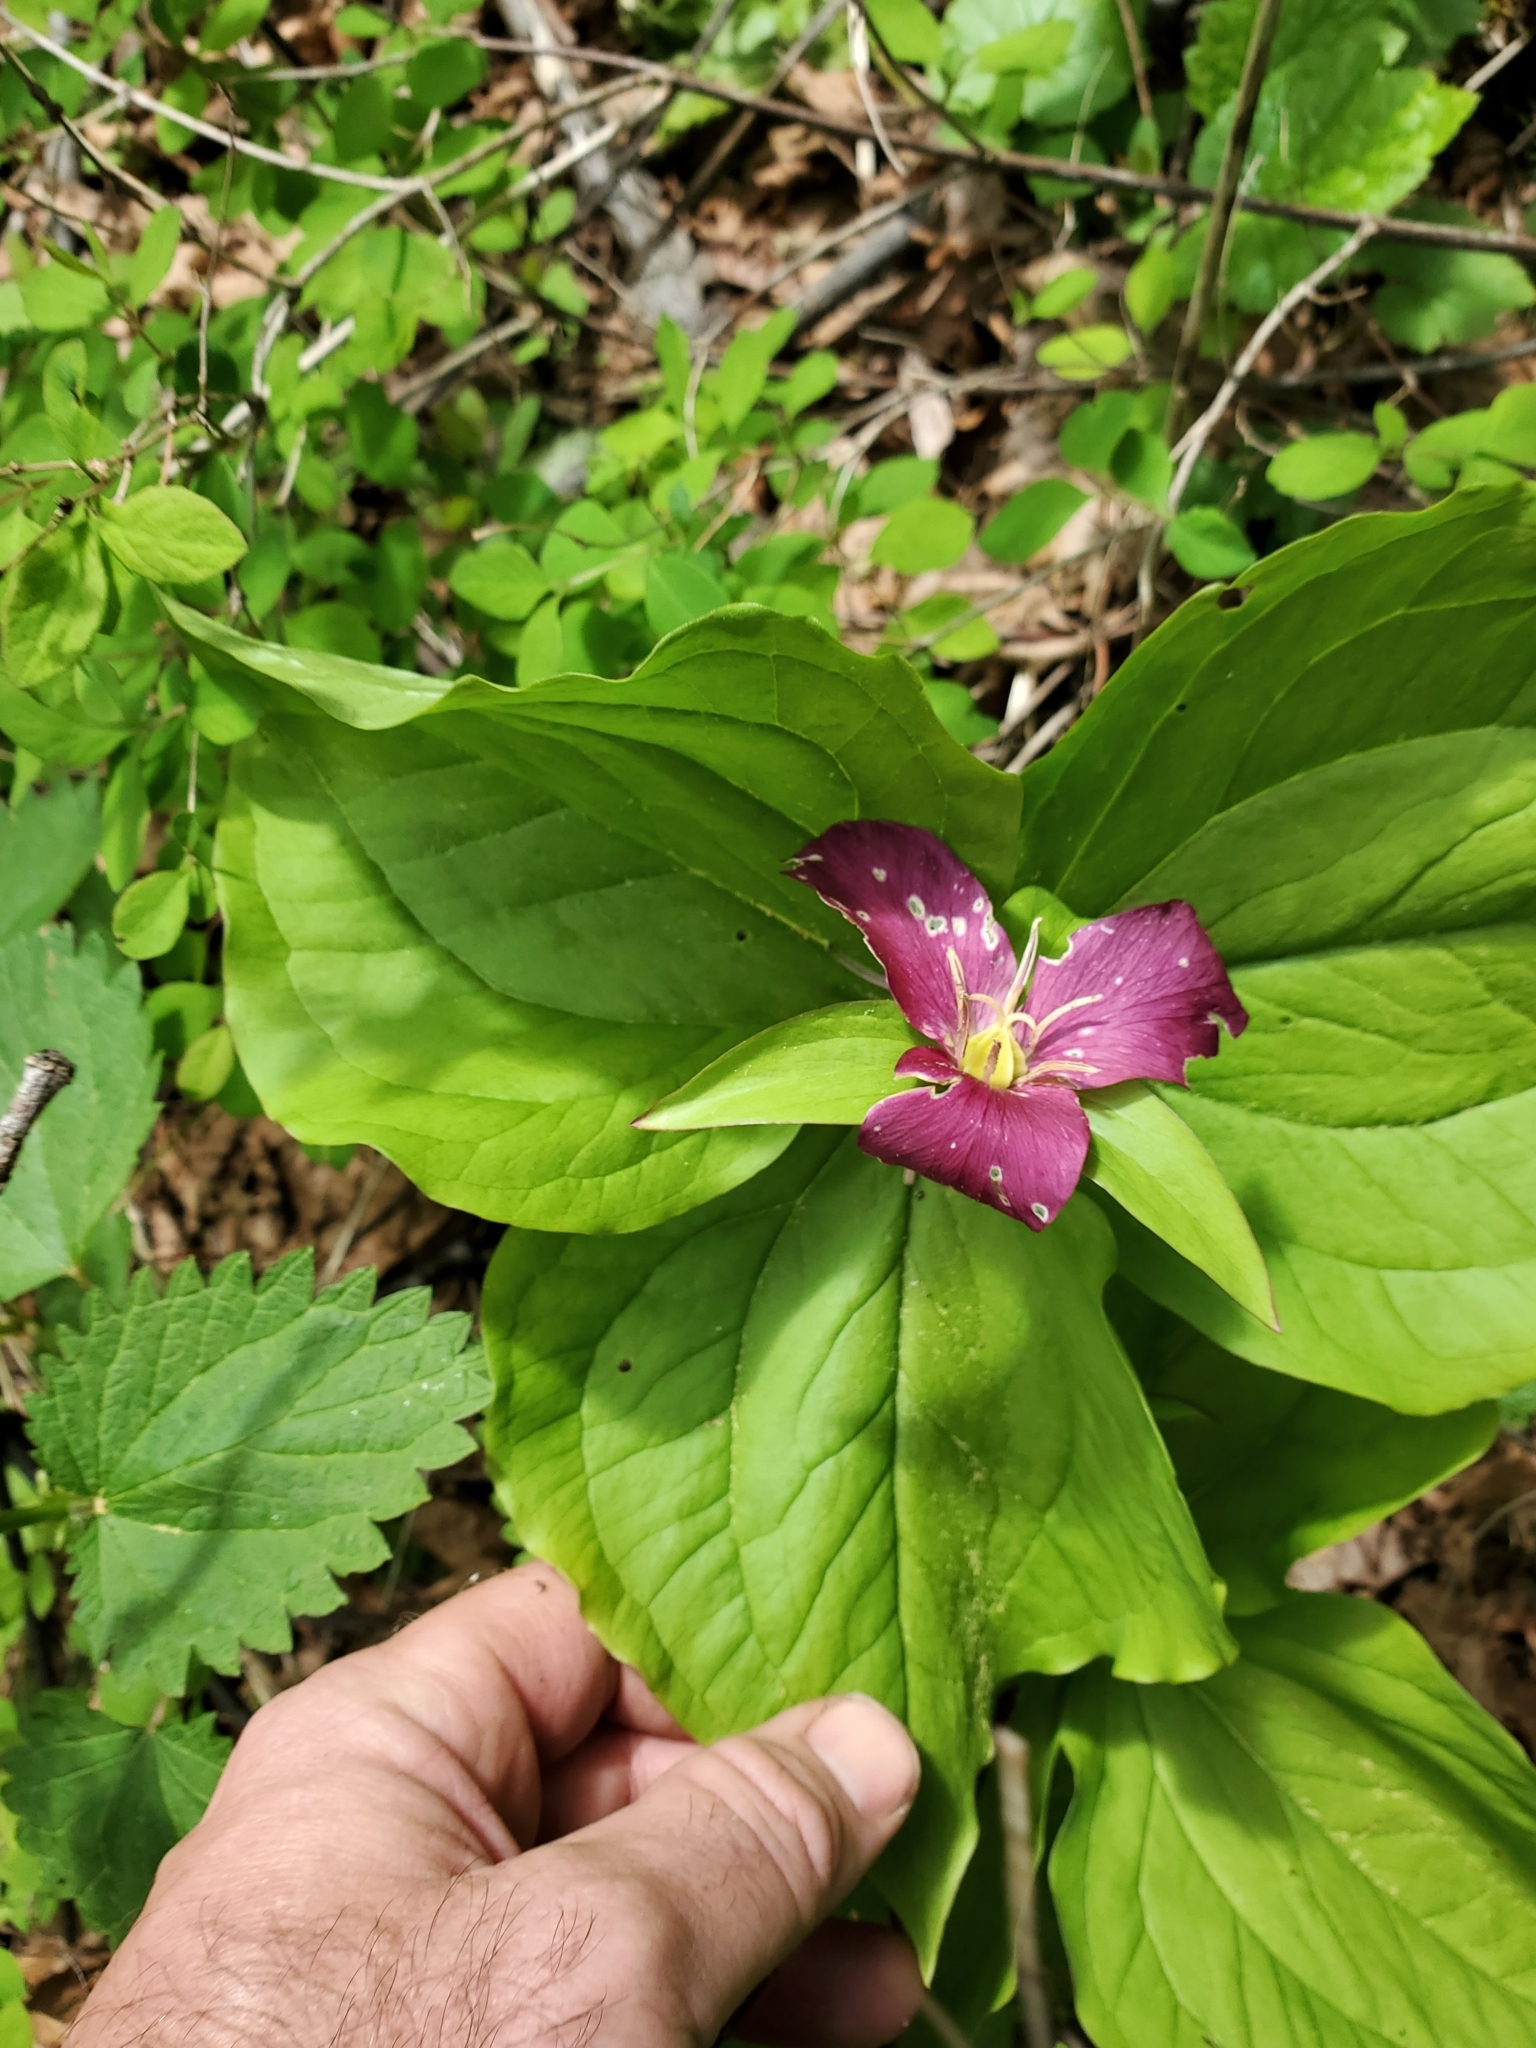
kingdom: Plantae
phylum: Tracheophyta
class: Liliopsida
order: Liliales
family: Melanthiaceae
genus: Trillium
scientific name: Trillium ovatum
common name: Pacific trillium
